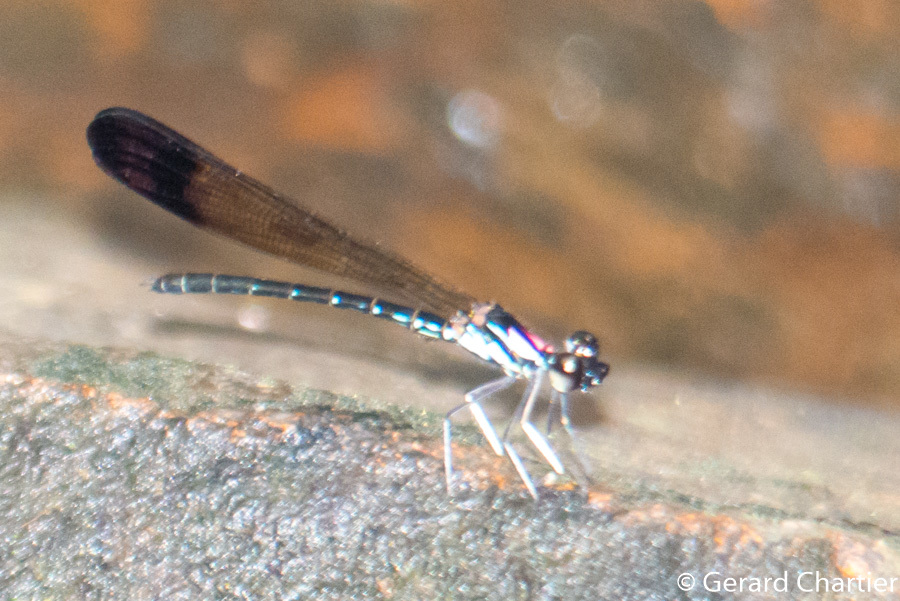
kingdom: Animalia
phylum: Arthropoda
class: Insecta
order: Odonata
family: Chlorocyphidae
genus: Heliocypha
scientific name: Heliocypha biforata
